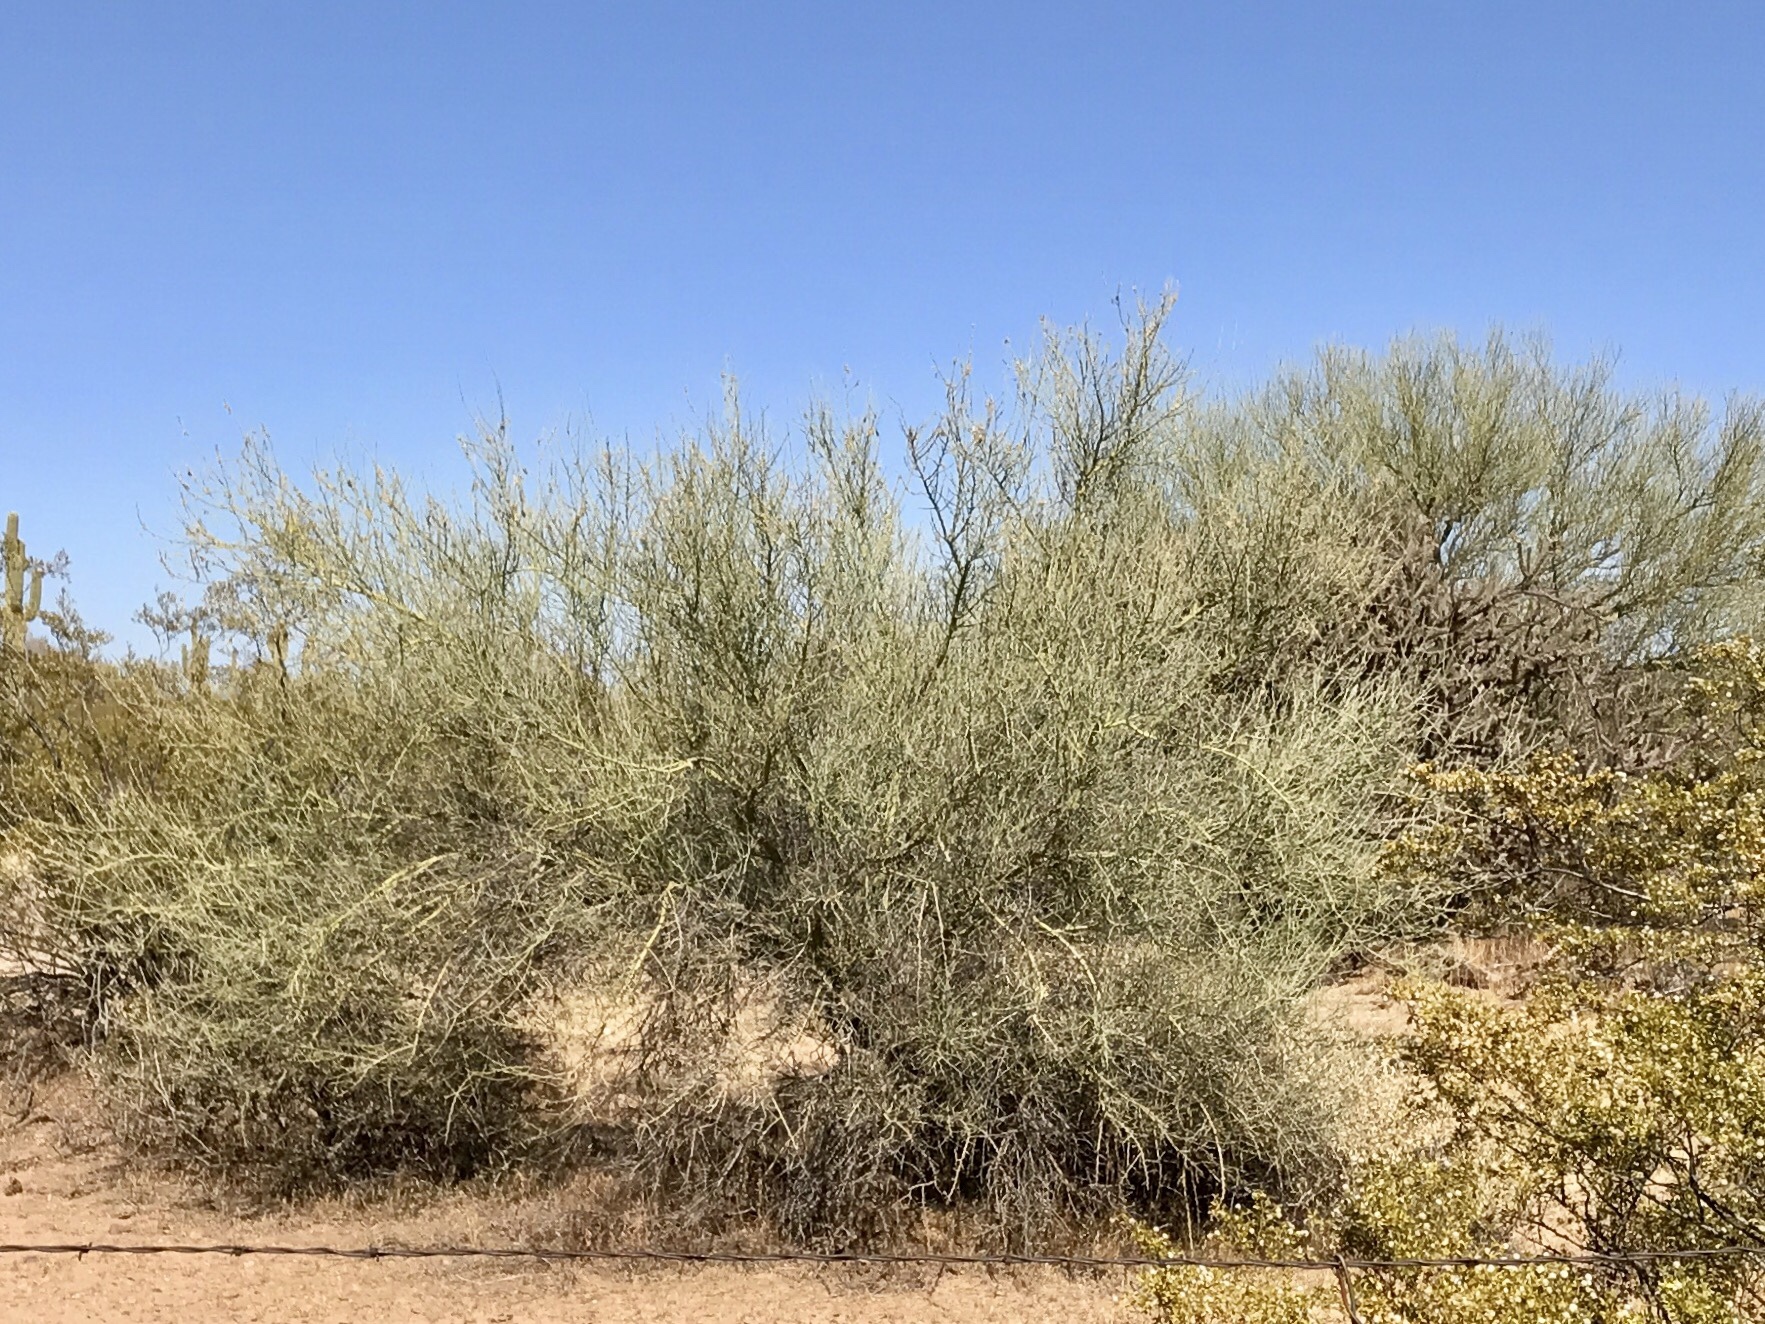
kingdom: Plantae
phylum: Tracheophyta
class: Magnoliopsida
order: Fabales
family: Fabaceae
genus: Parkinsonia
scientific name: Parkinsonia florida
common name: Blue paloverde
